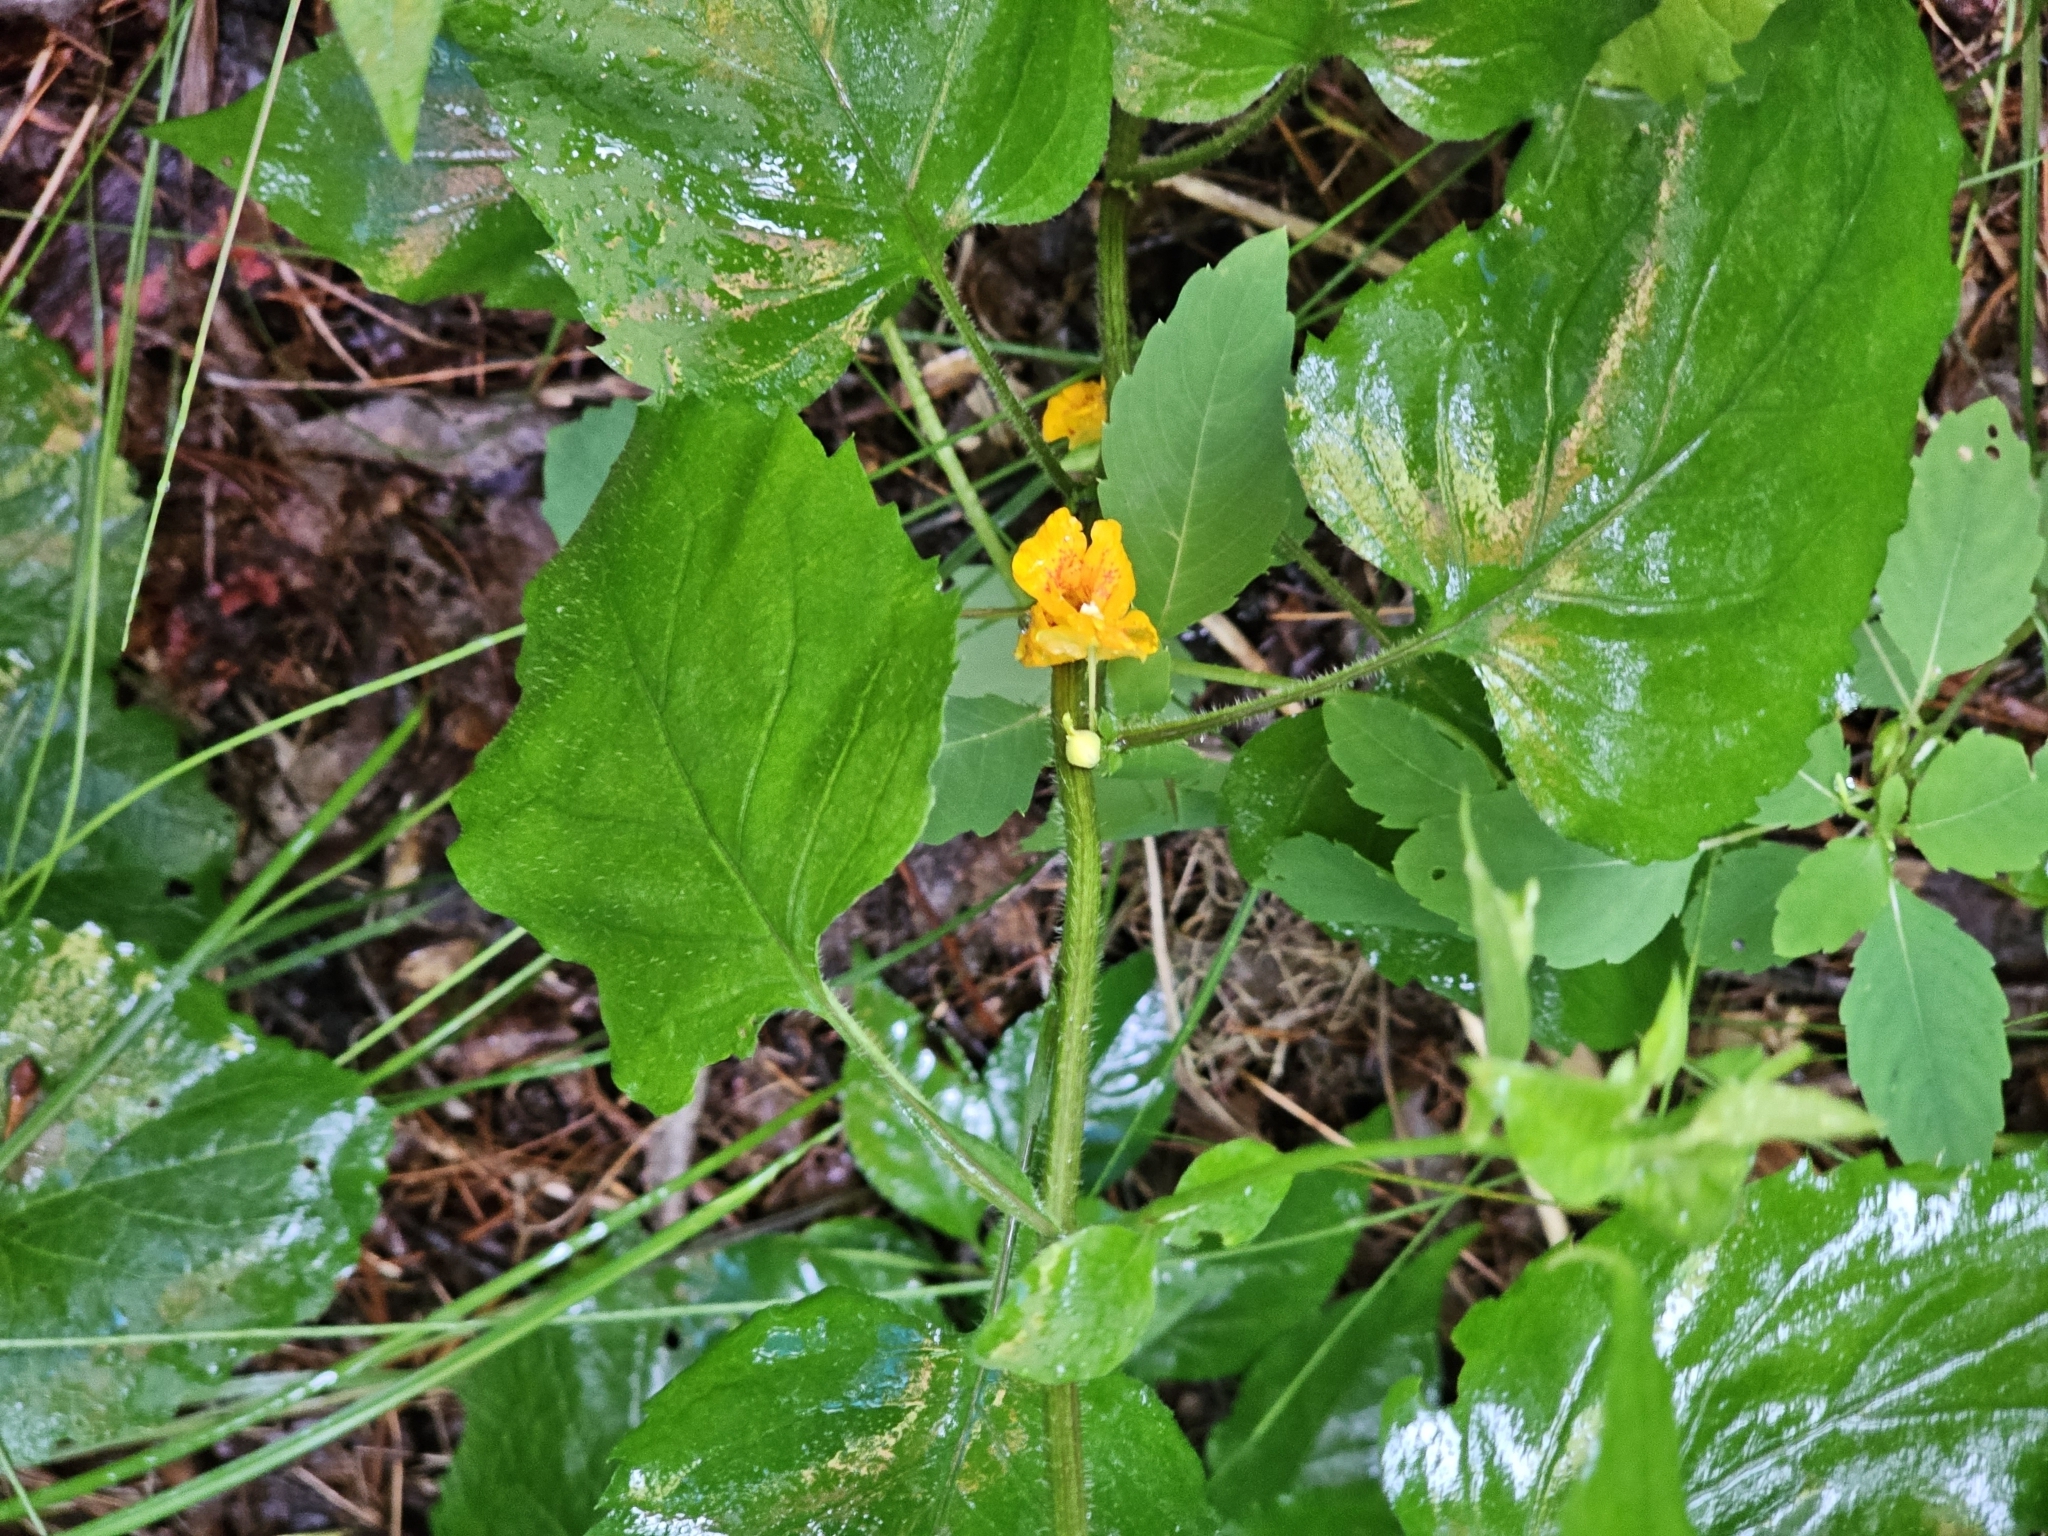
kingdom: Plantae
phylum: Tracheophyta
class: Magnoliopsida
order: Ericales
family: Balsaminaceae
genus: Impatiens
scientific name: Impatiens capensis
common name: Orange balsam
